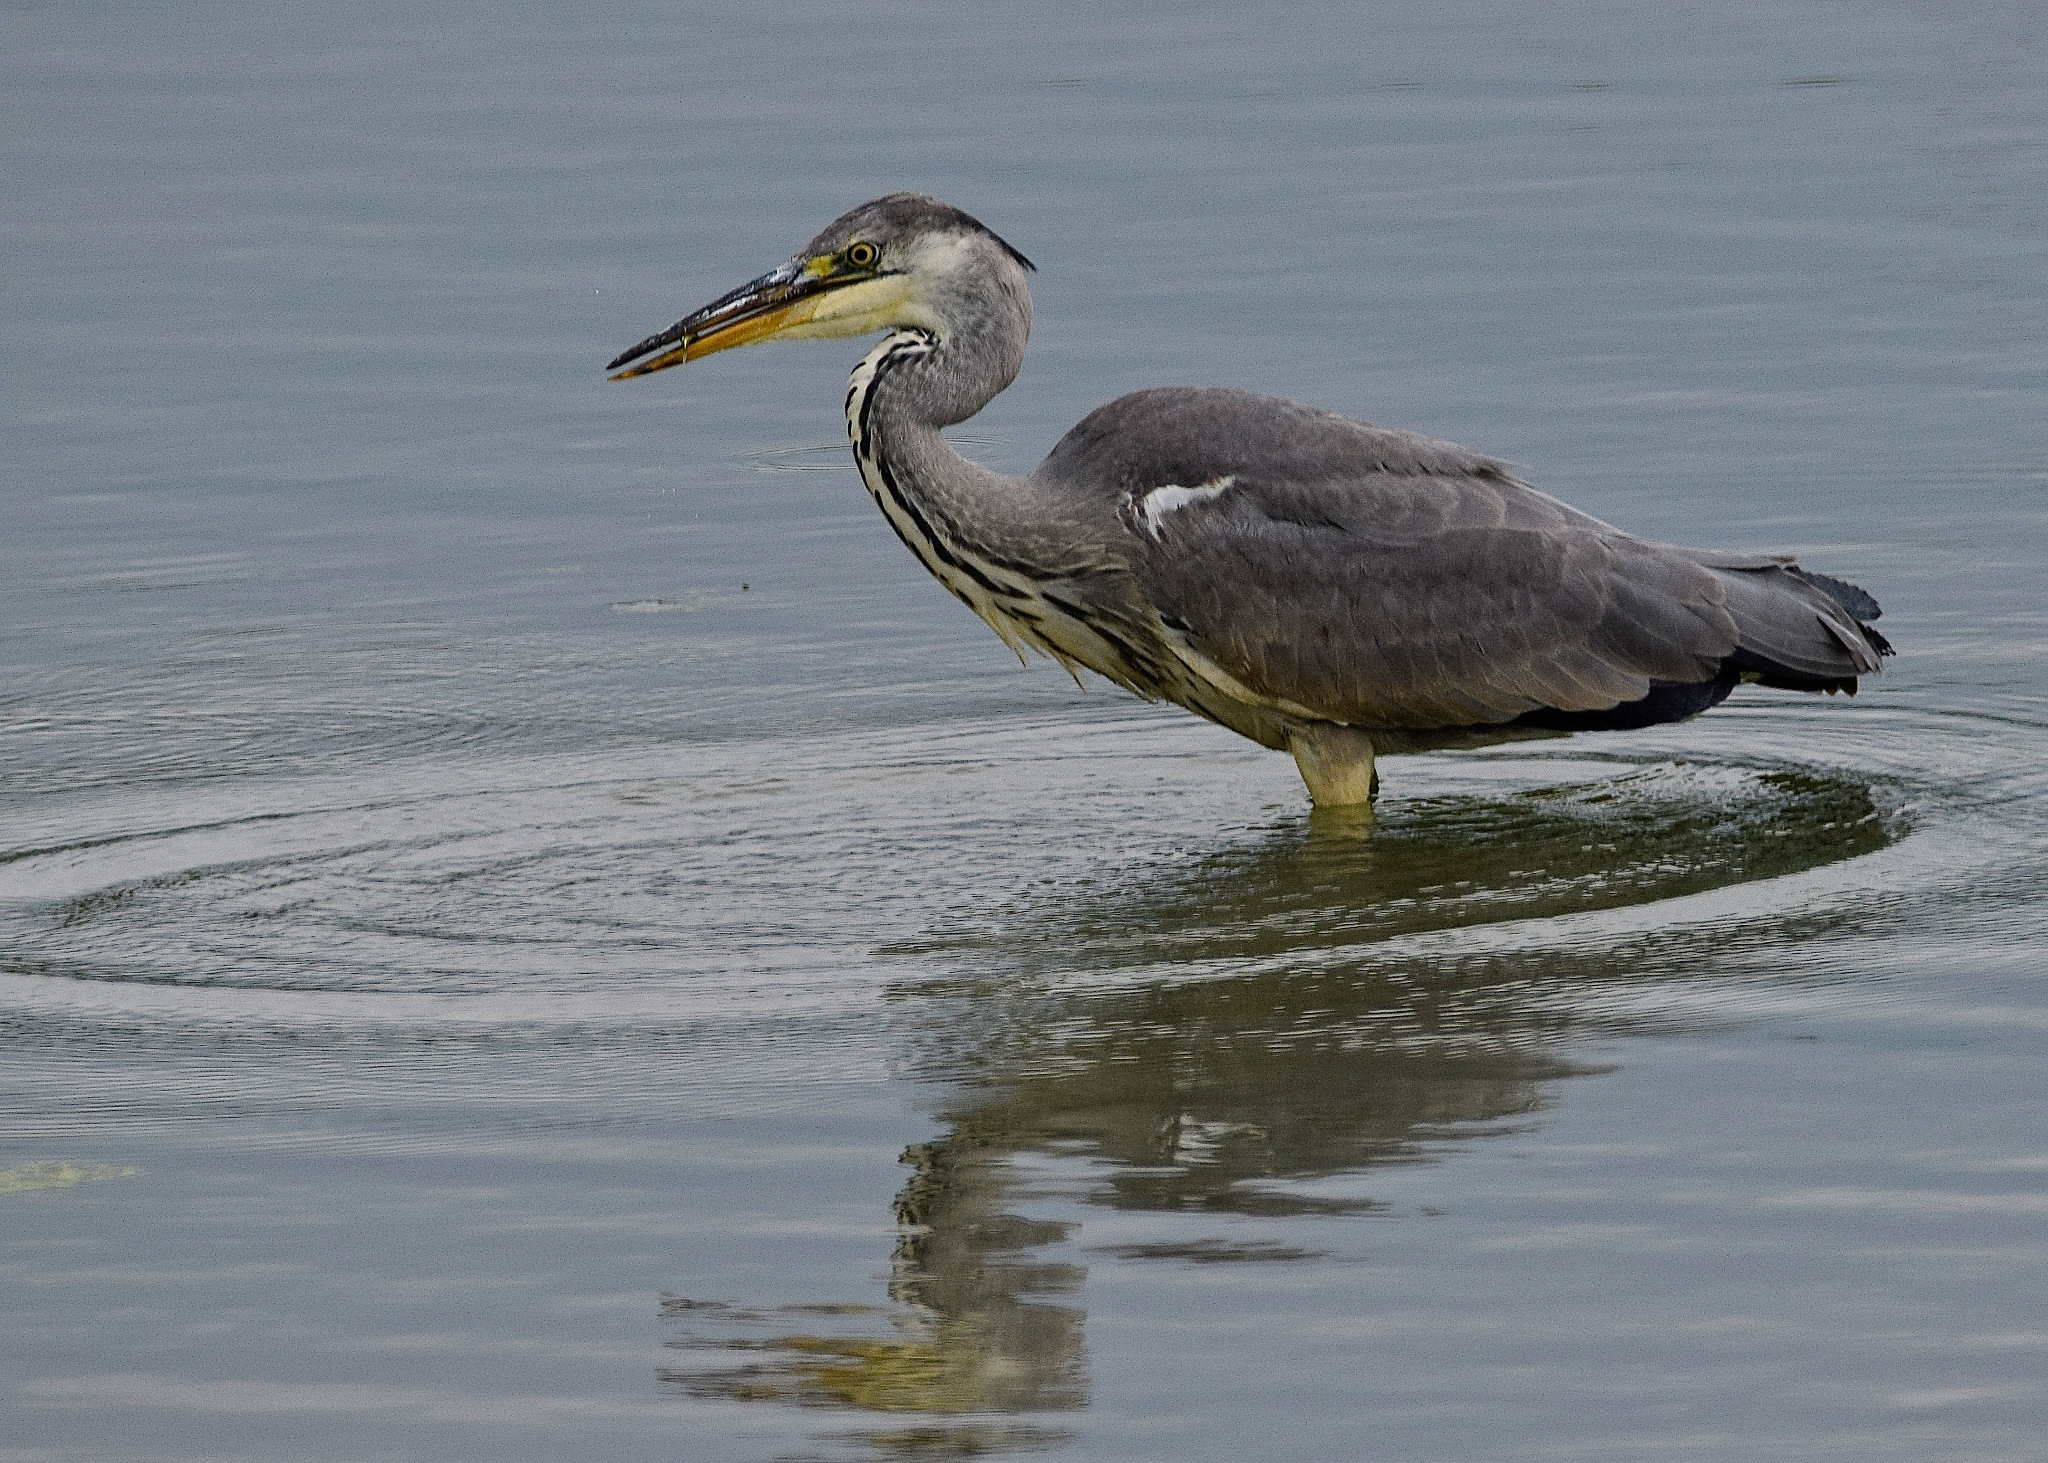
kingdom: Animalia
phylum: Chordata
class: Aves
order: Pelecaniformes
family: Ardeidae
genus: Ardea
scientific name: Ardea cinerea
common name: Grey heron
